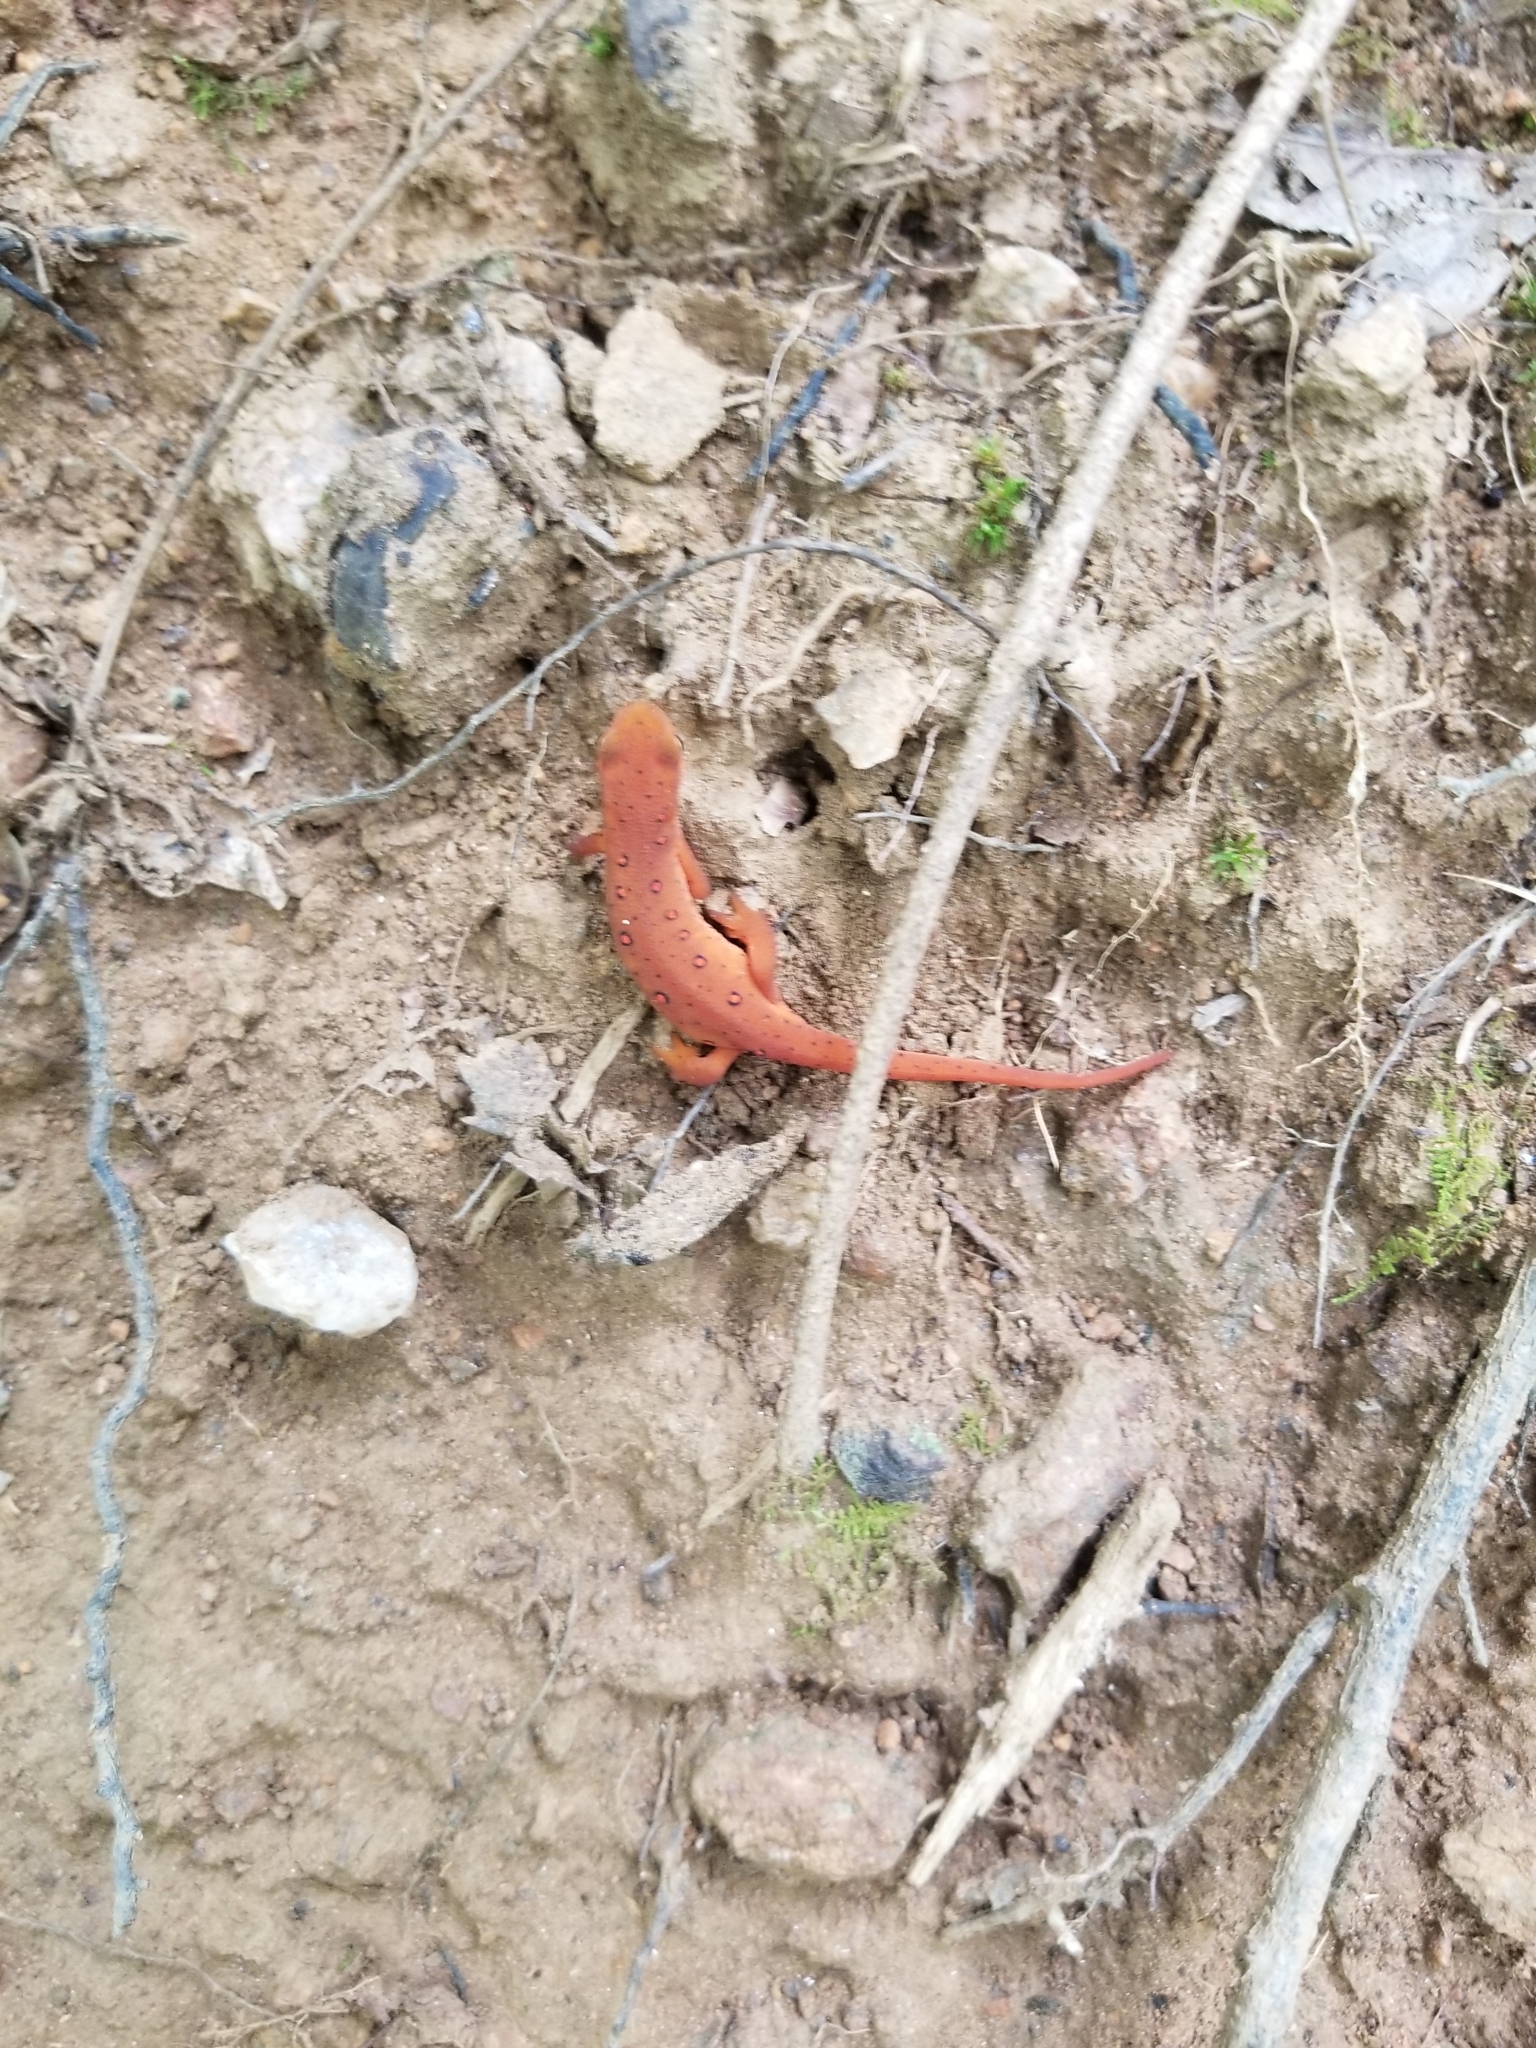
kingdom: Animalia
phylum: Chordata
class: Amphibia
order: Caudata
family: Salamandridae
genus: Notophthalmus
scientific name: Notophthalmus viridescens
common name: Eastern newt
